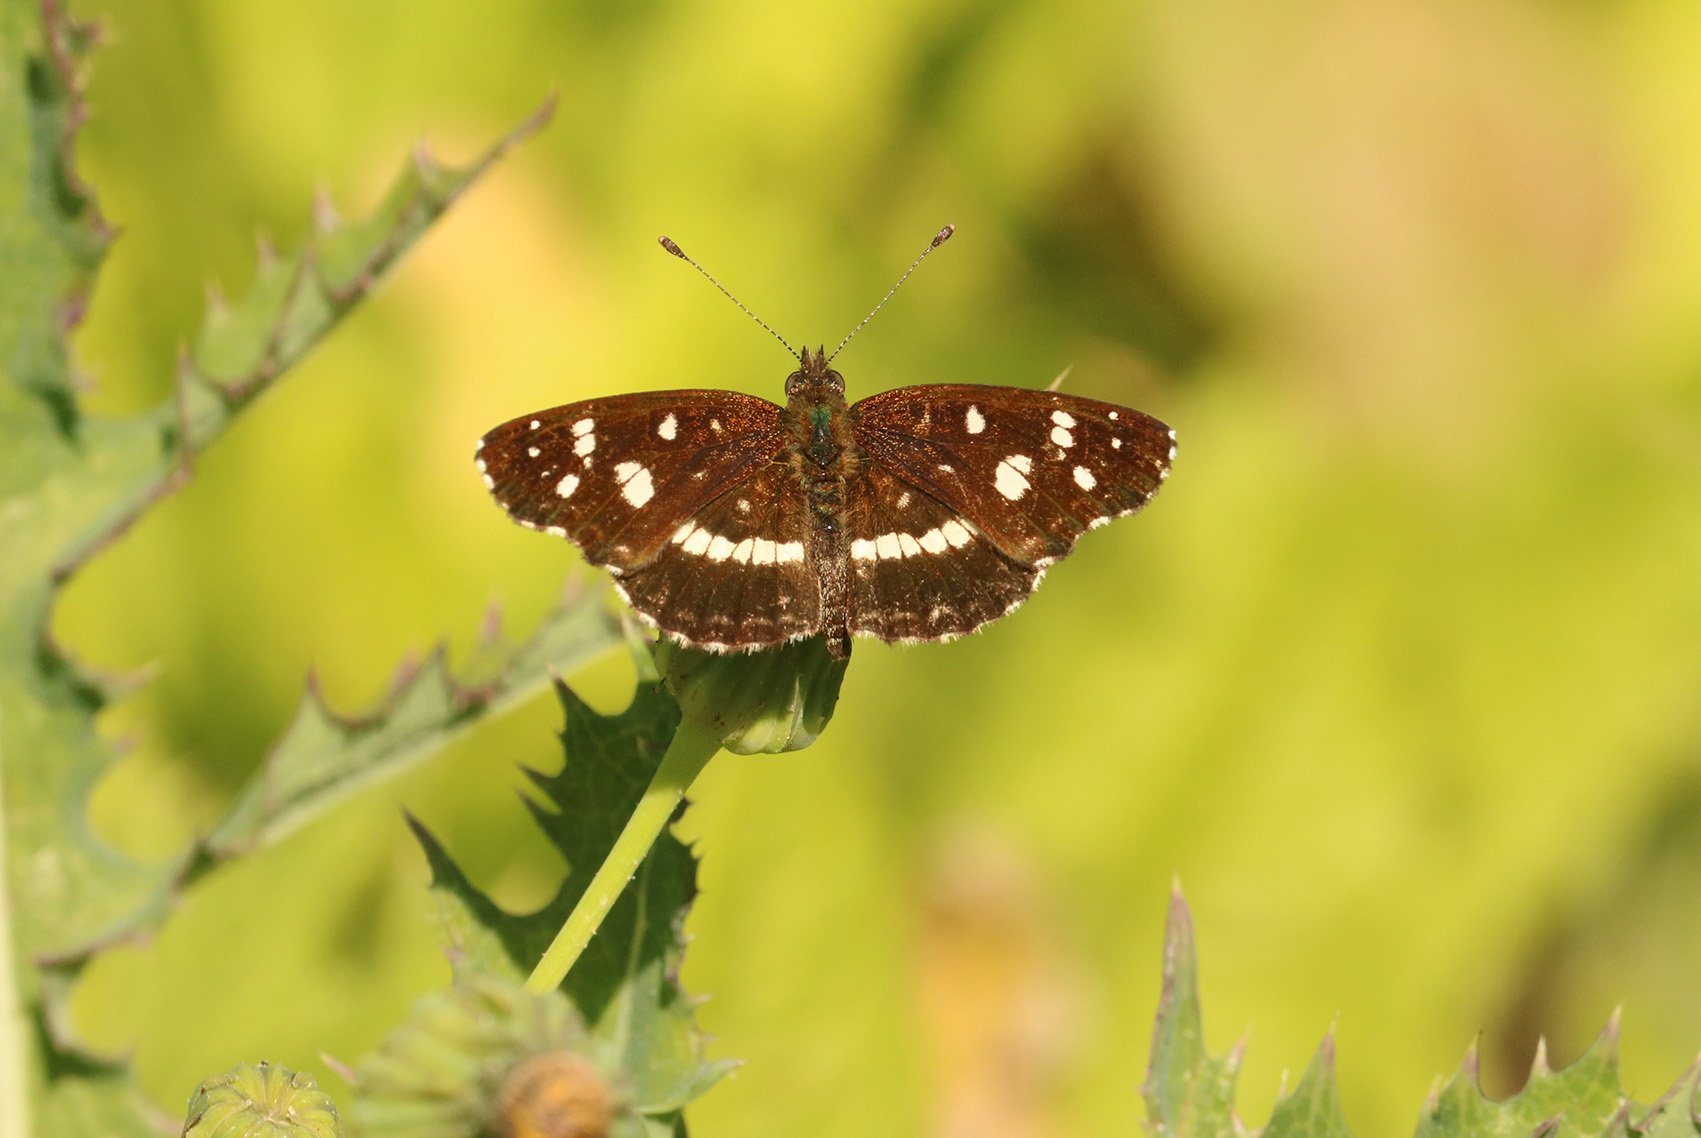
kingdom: Animalia
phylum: Arthropoda
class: Insecta
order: Lepidoptera
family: Nymphalidae
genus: Ortilia
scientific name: Ortilia ithra
